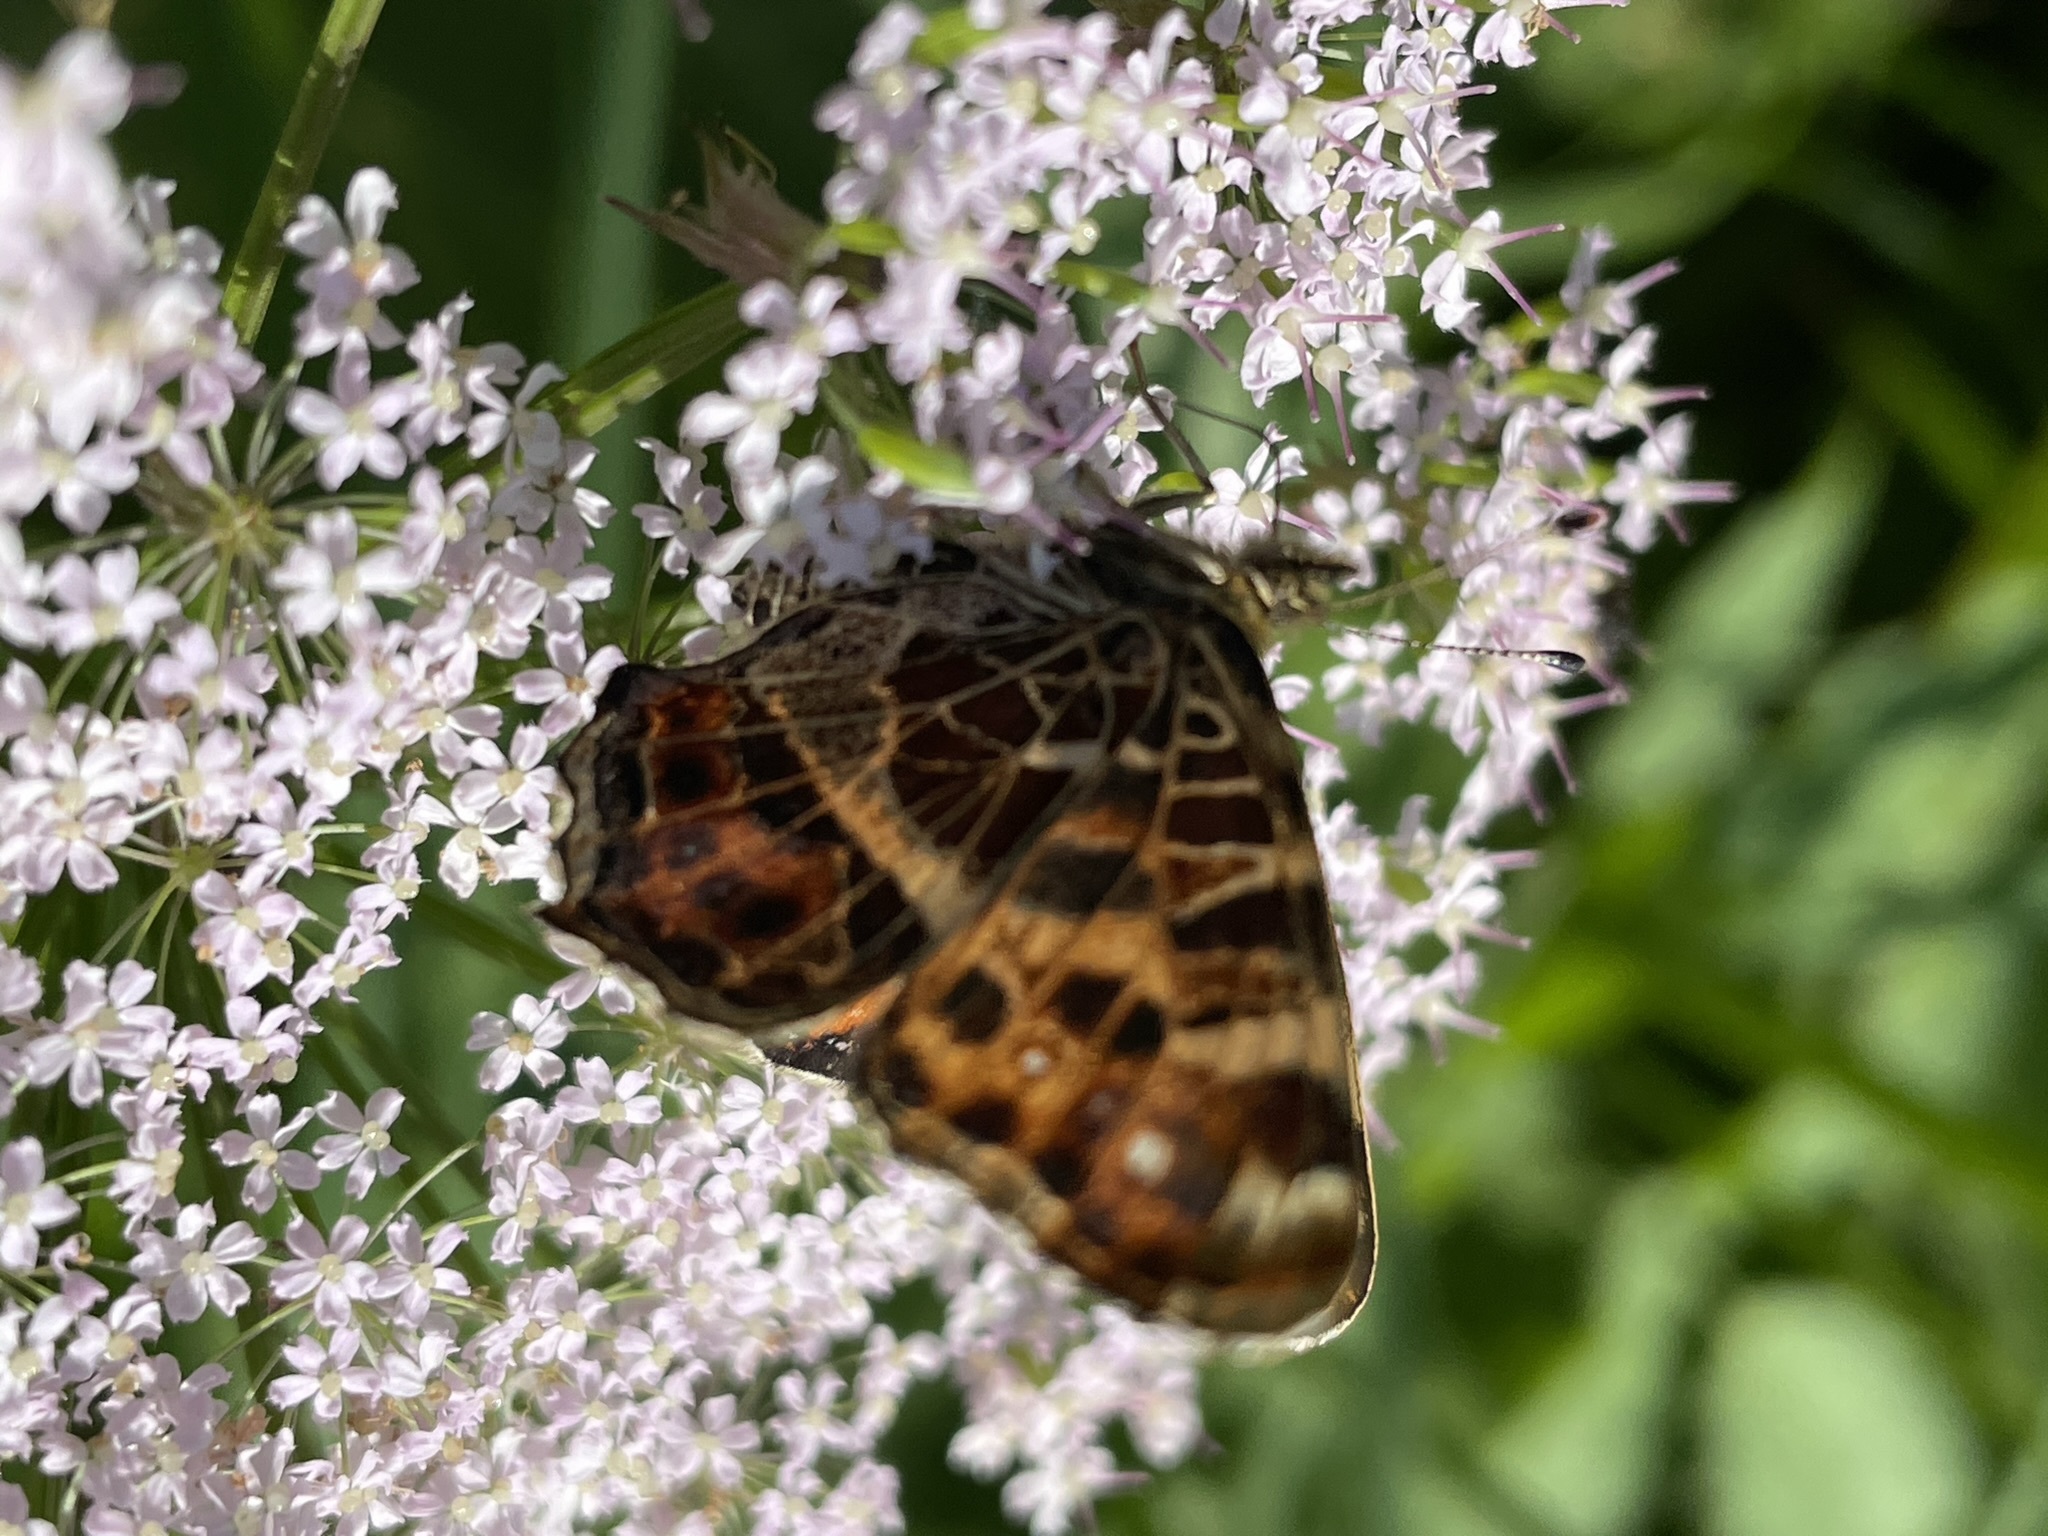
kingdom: Animalia
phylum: Arthropoda
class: Insecta
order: Lepidoptera
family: Nymphalidae
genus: Araschnia
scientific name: Araschnia levana
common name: Map butterfly
